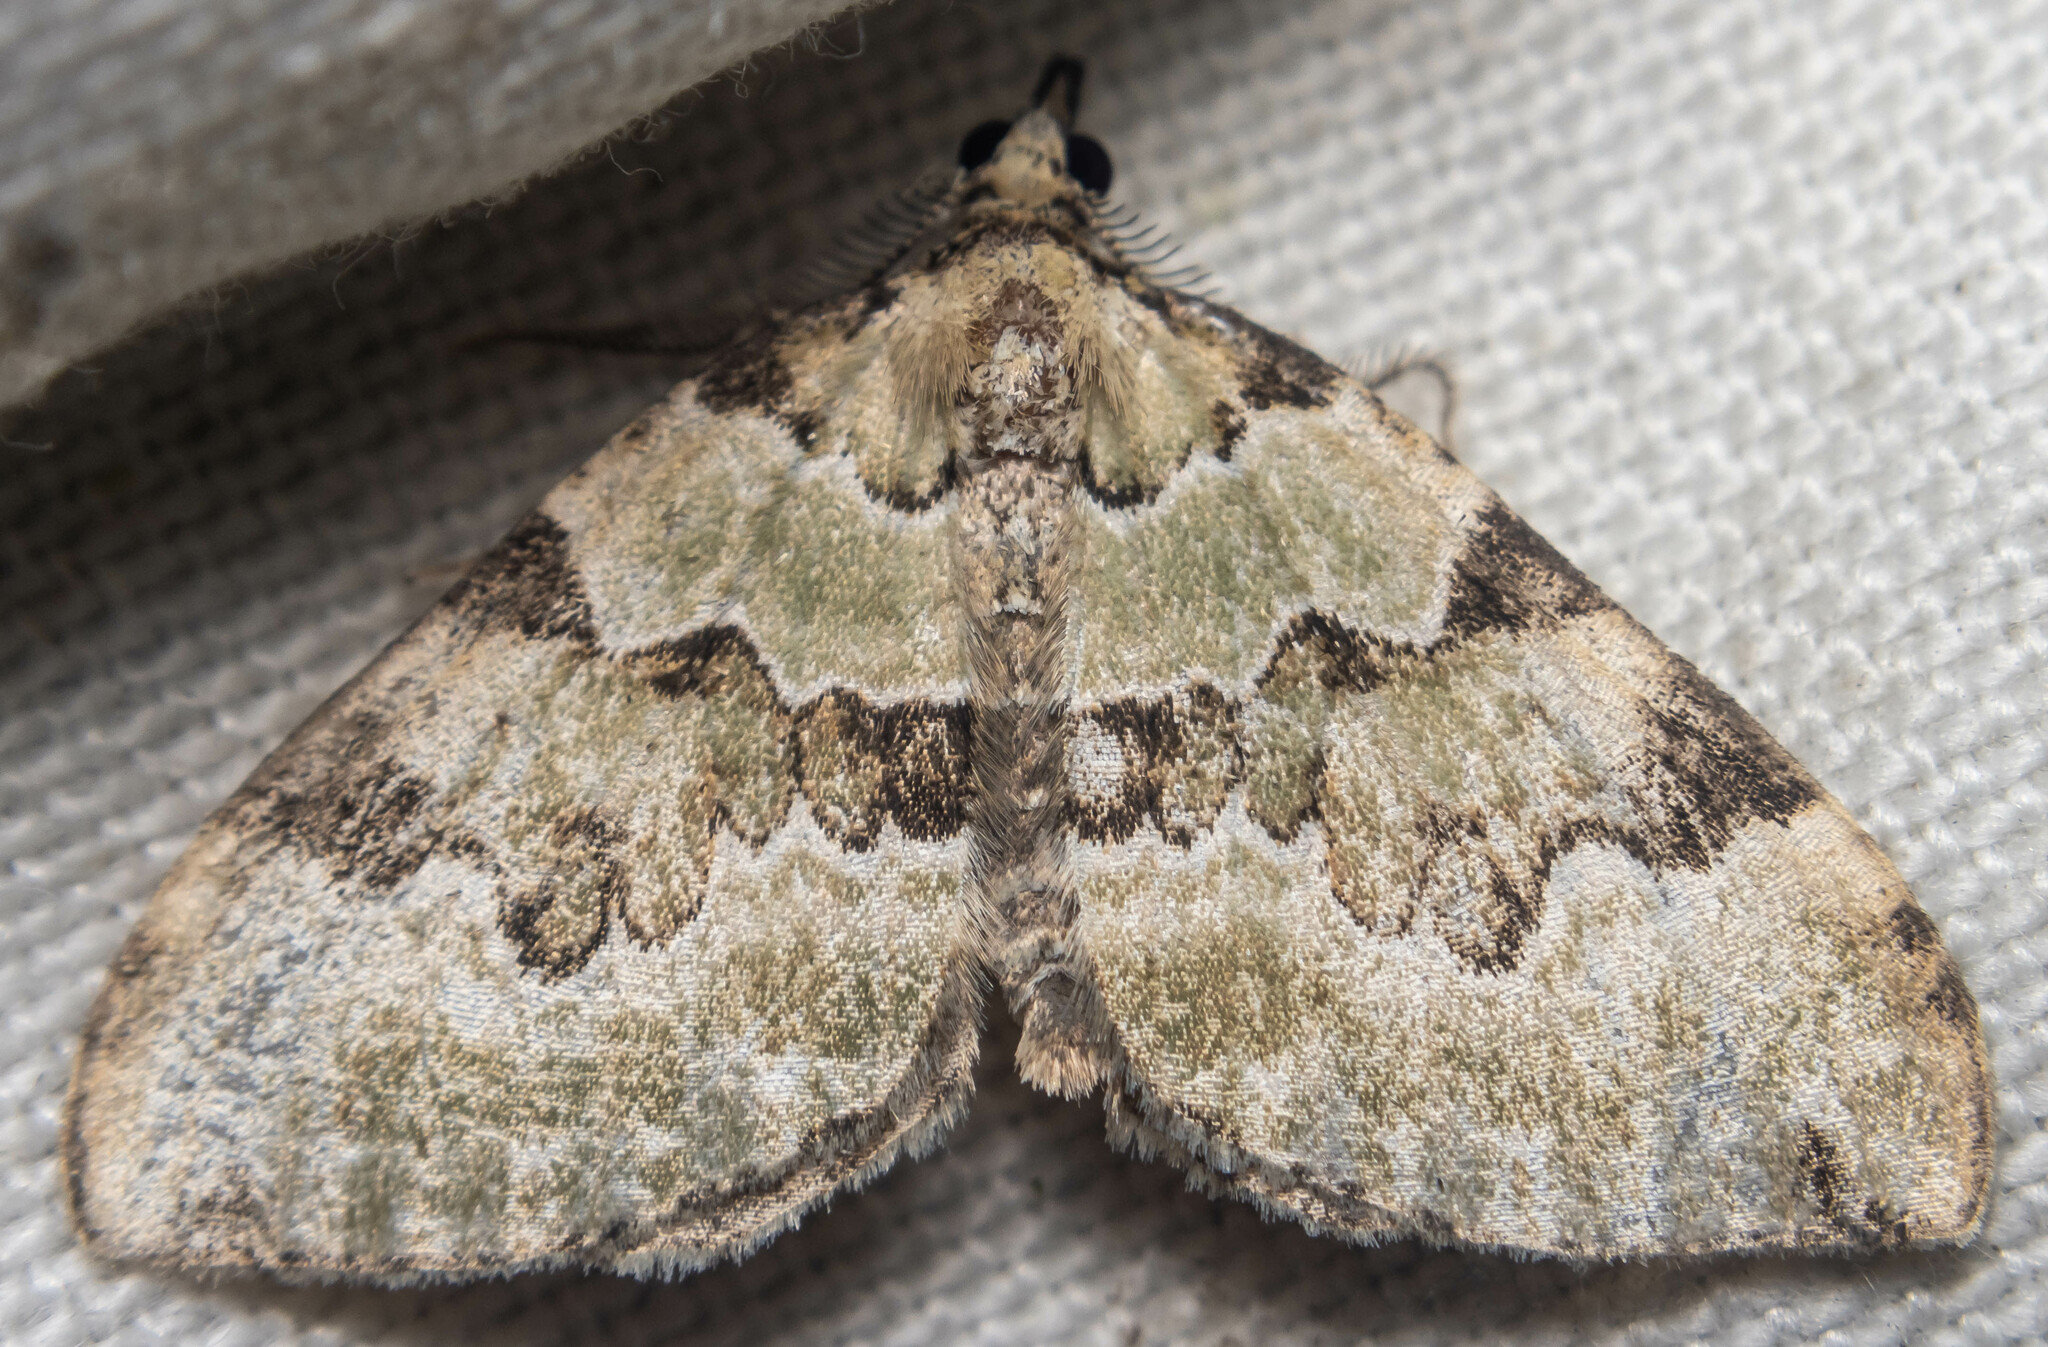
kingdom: Animalia
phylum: Arthropoda
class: Insecta
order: Lepidoptera
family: Geometridae
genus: Colostygia
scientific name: Colostygia pectinataria
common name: Green carpet
